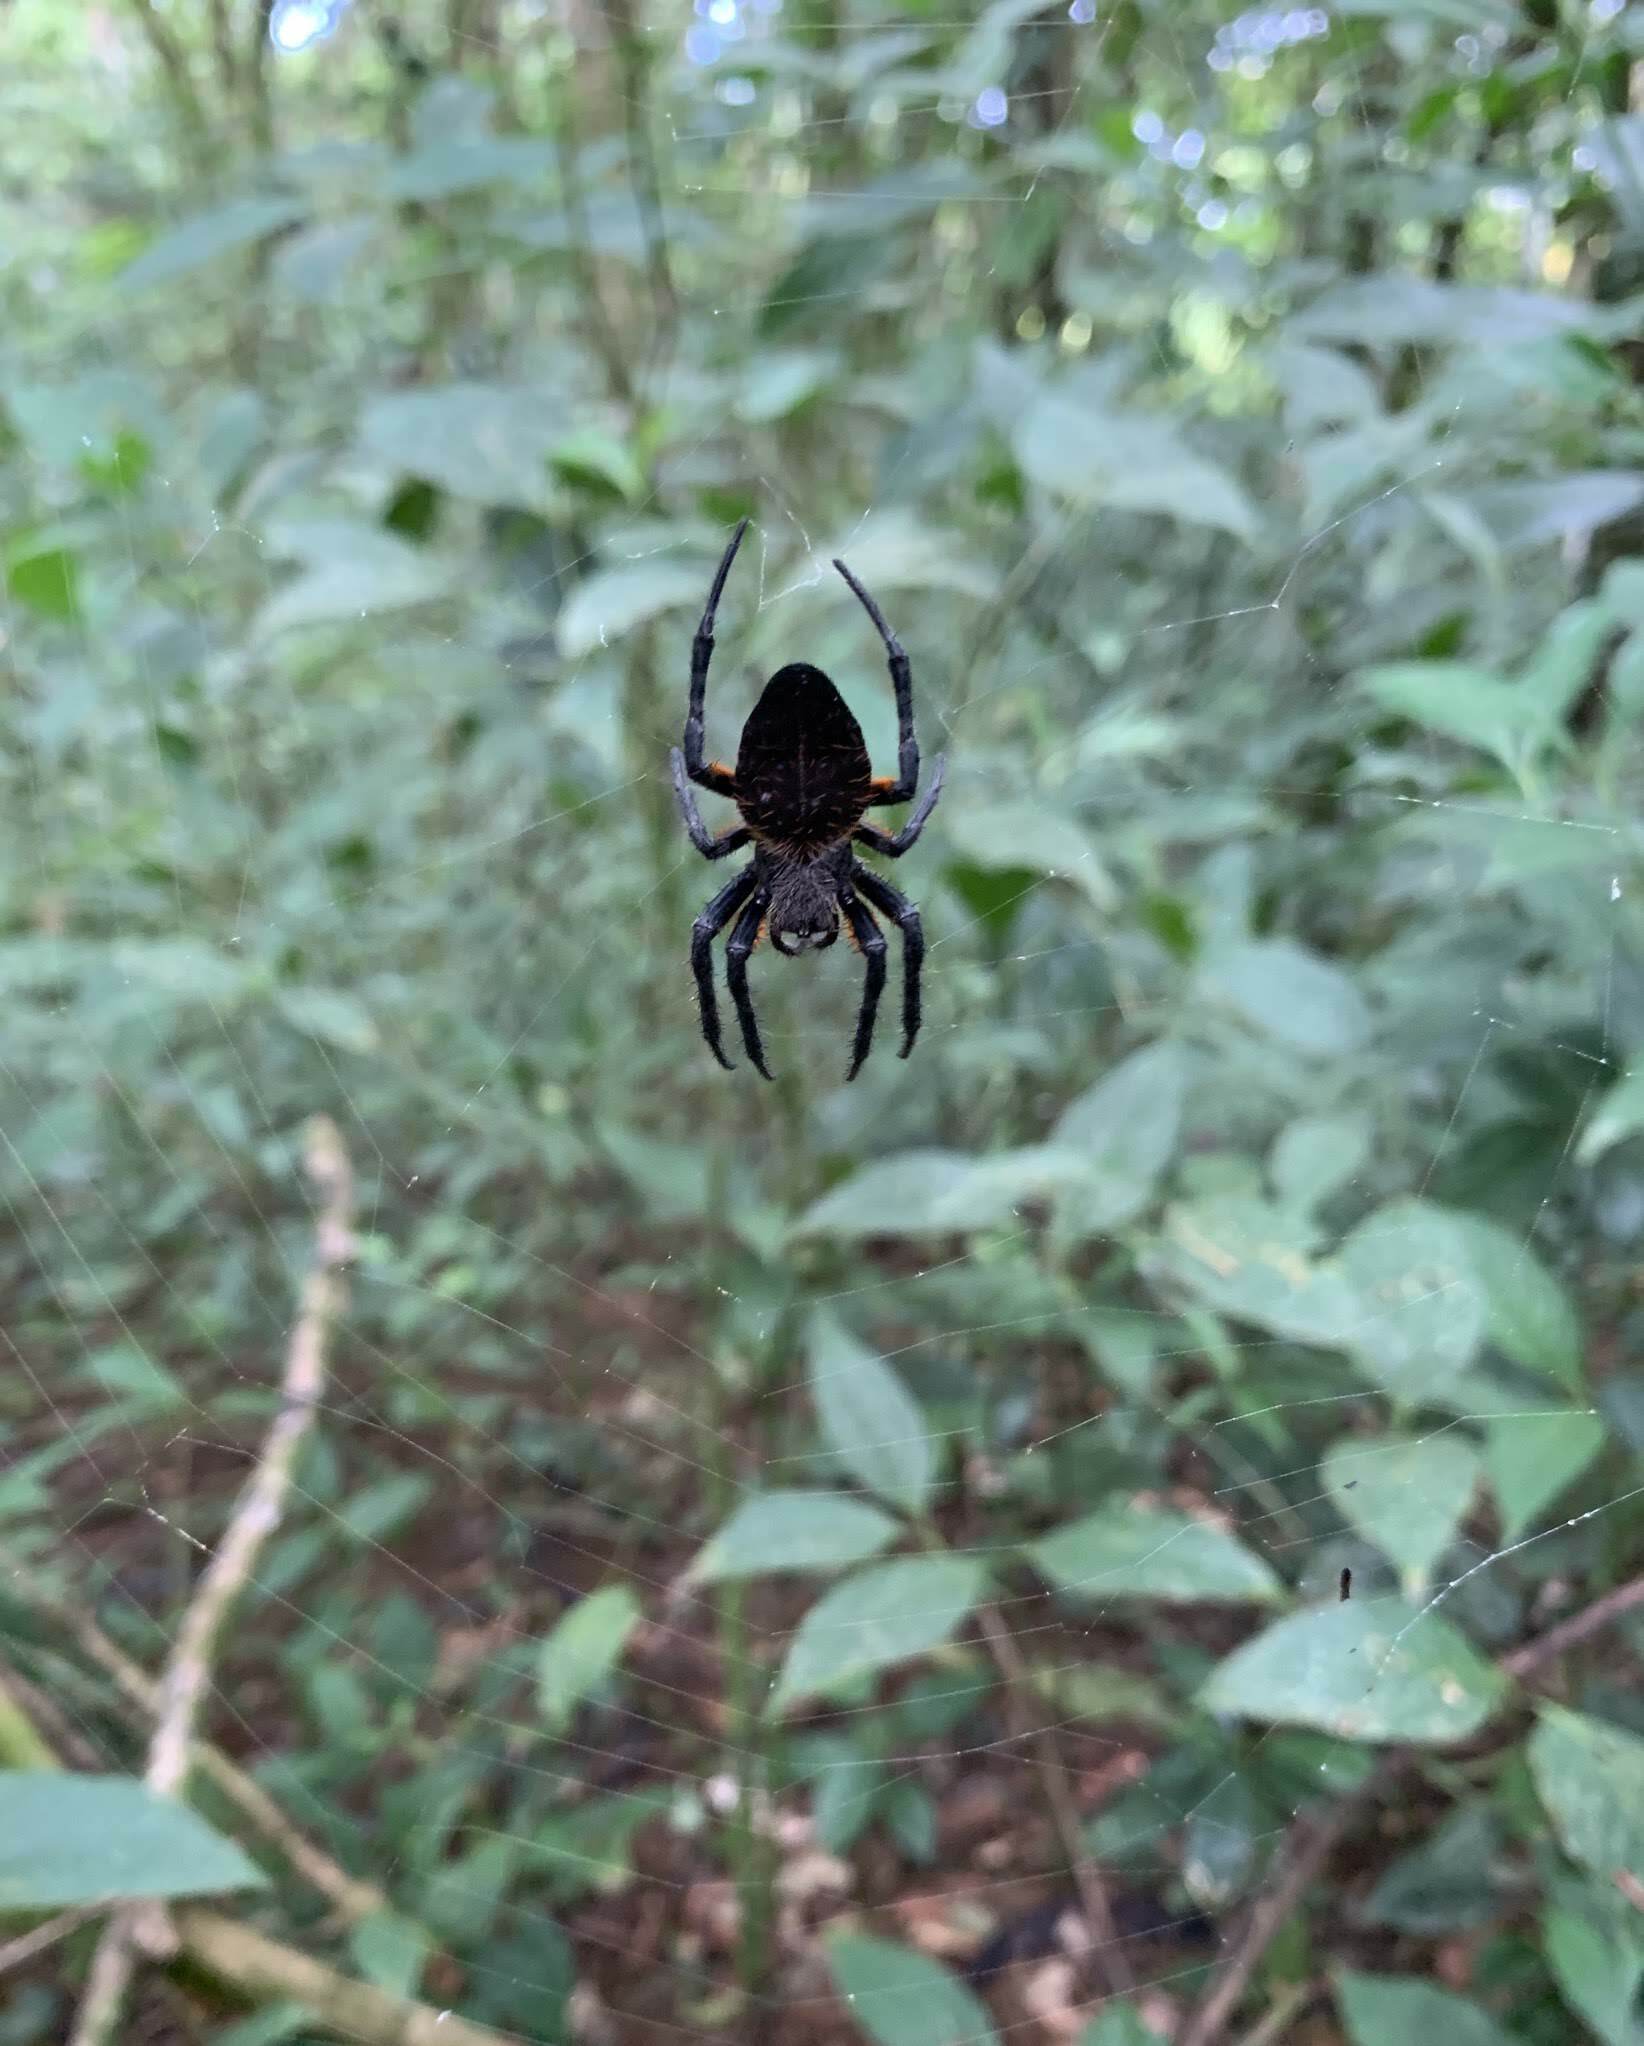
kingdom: Animalia
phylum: Arthropoda
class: Arachnida
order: Araneae
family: Araneidae
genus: Eriophora
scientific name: Eriophora fuliginea
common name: Orb weavers
